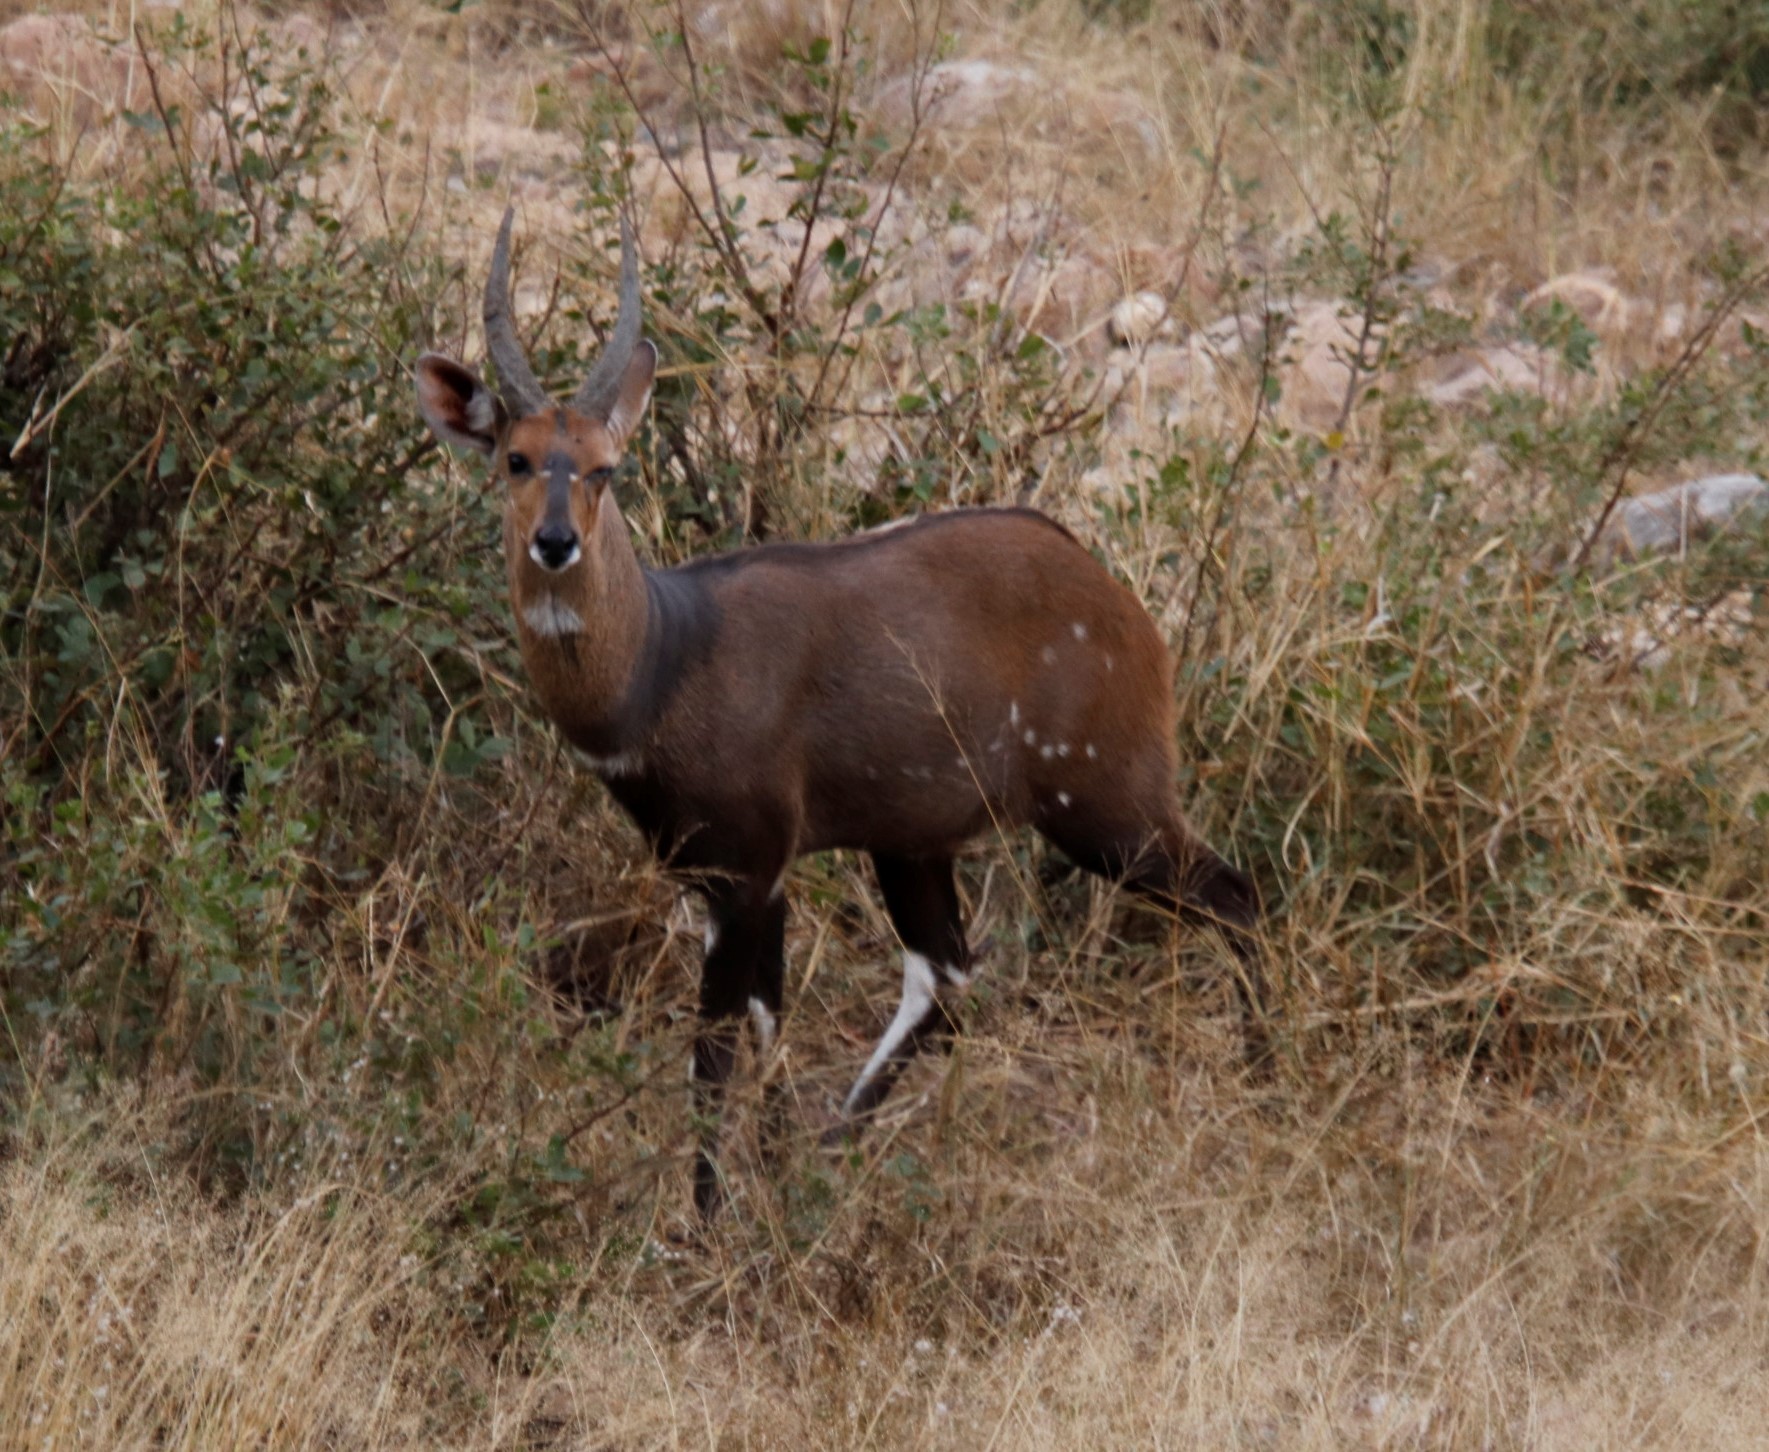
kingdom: Animalia
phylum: Chordata
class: Mammalia
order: Artiodactyla
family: Bovidae
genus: Tragelaphus
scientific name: Tragelaphus scriptus
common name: Bushbuck
